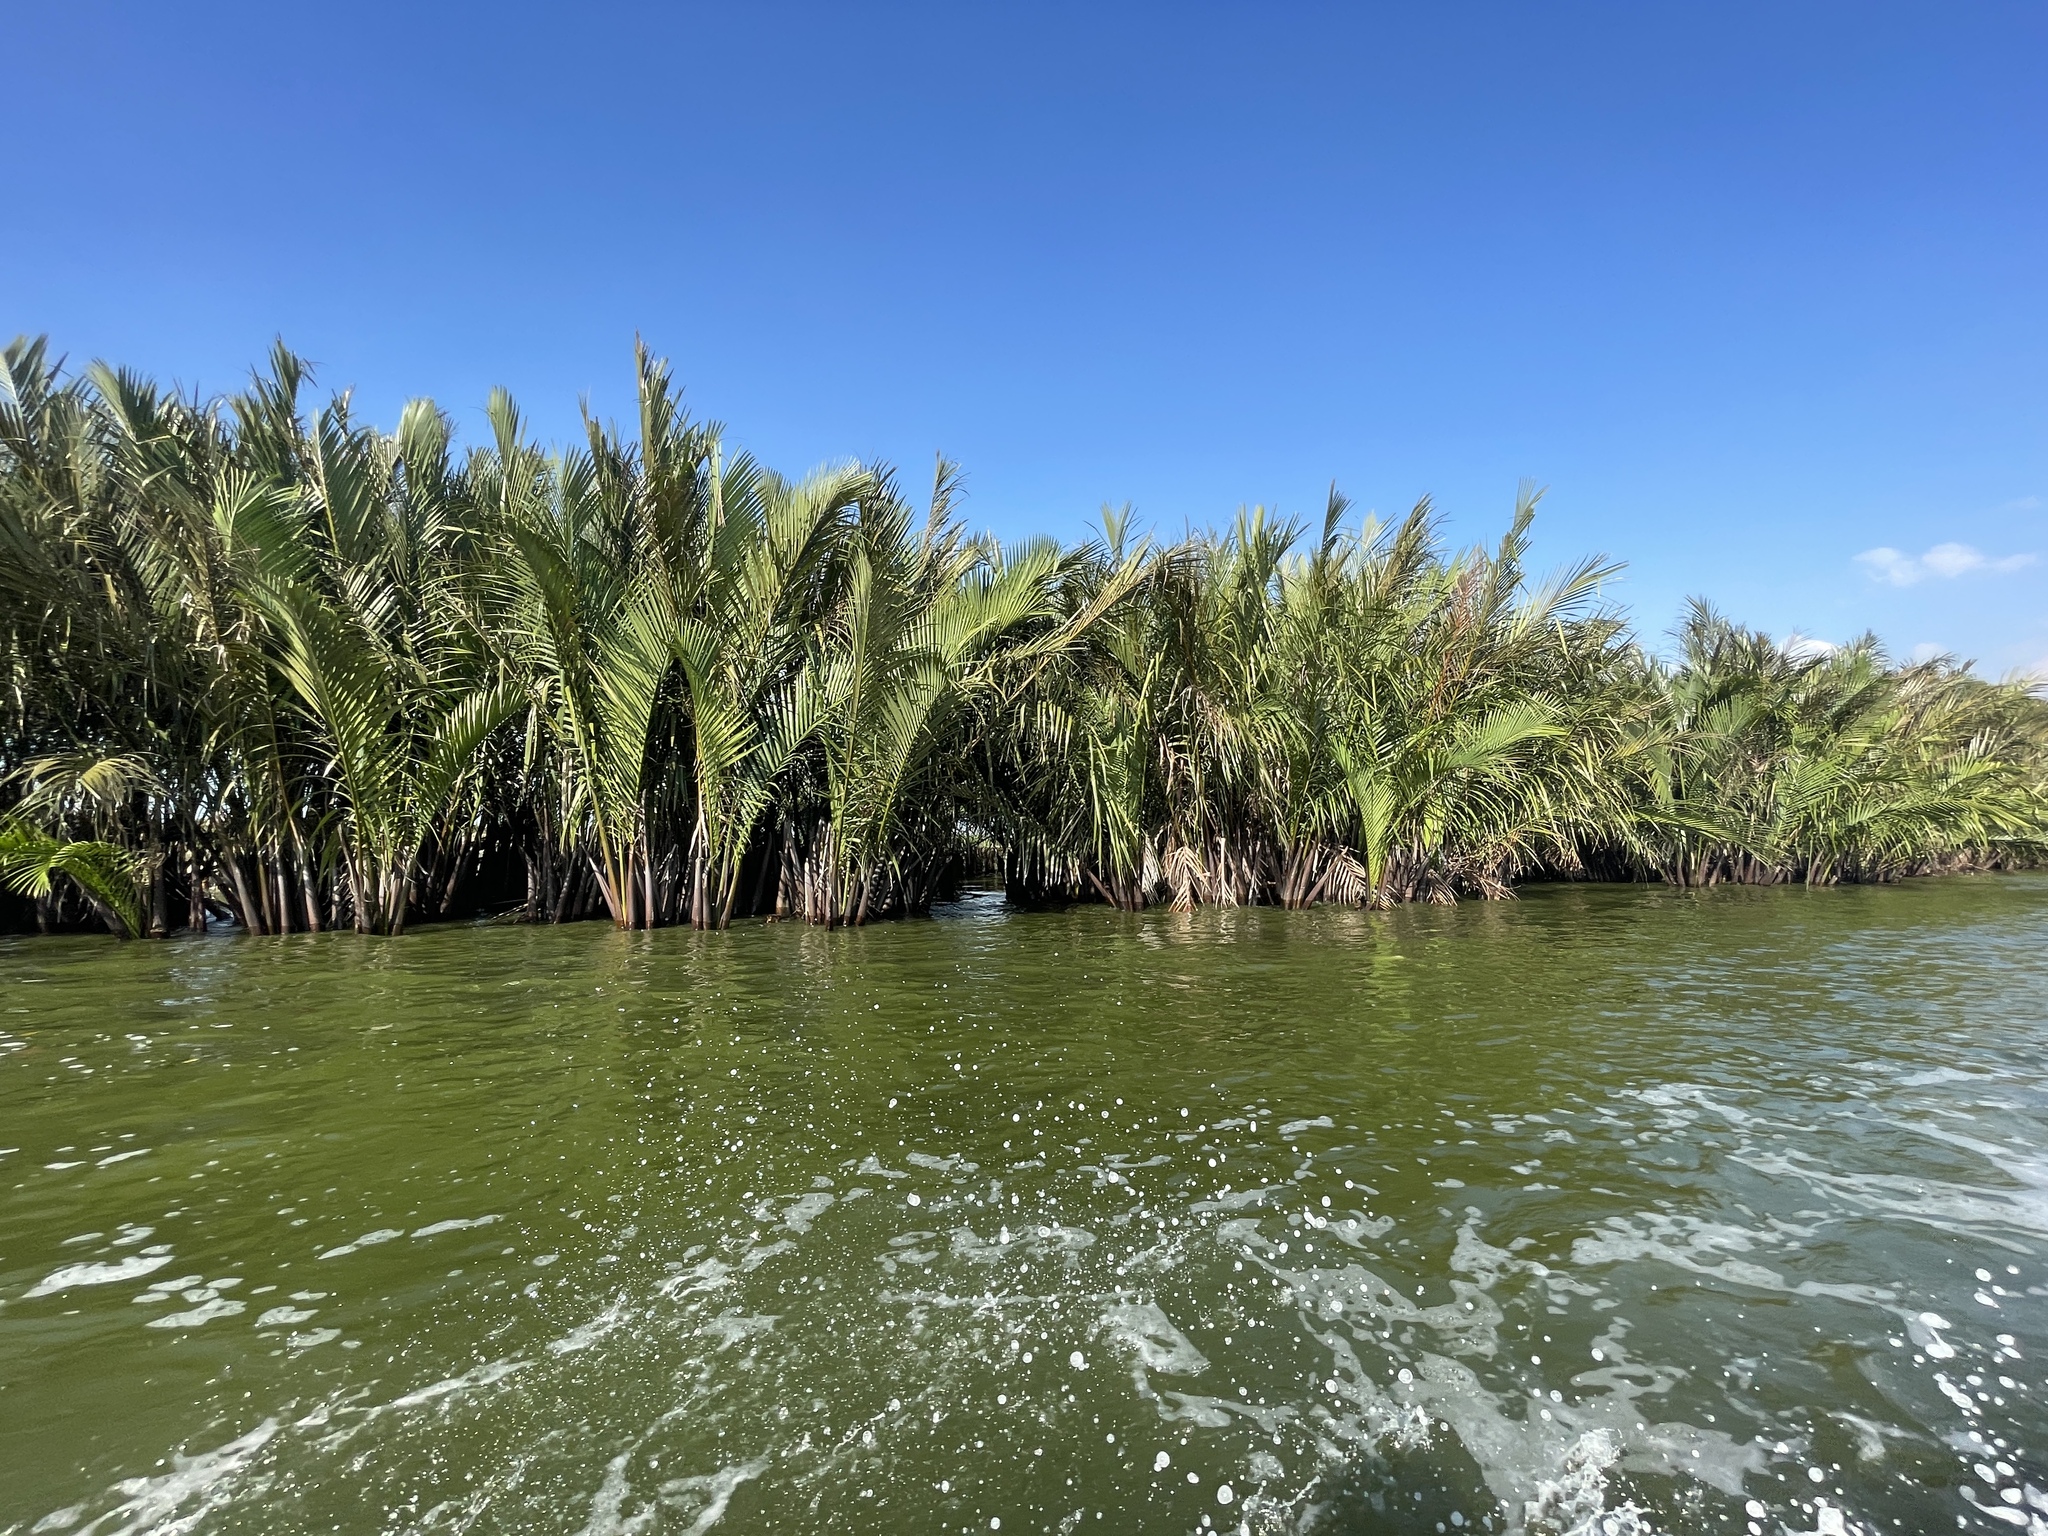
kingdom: Plantae
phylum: Tracheophyta
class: Liliopsida
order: Arecales
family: Arecaceae
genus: Nypa
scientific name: Nypa fruticans
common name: Mangrove palm
